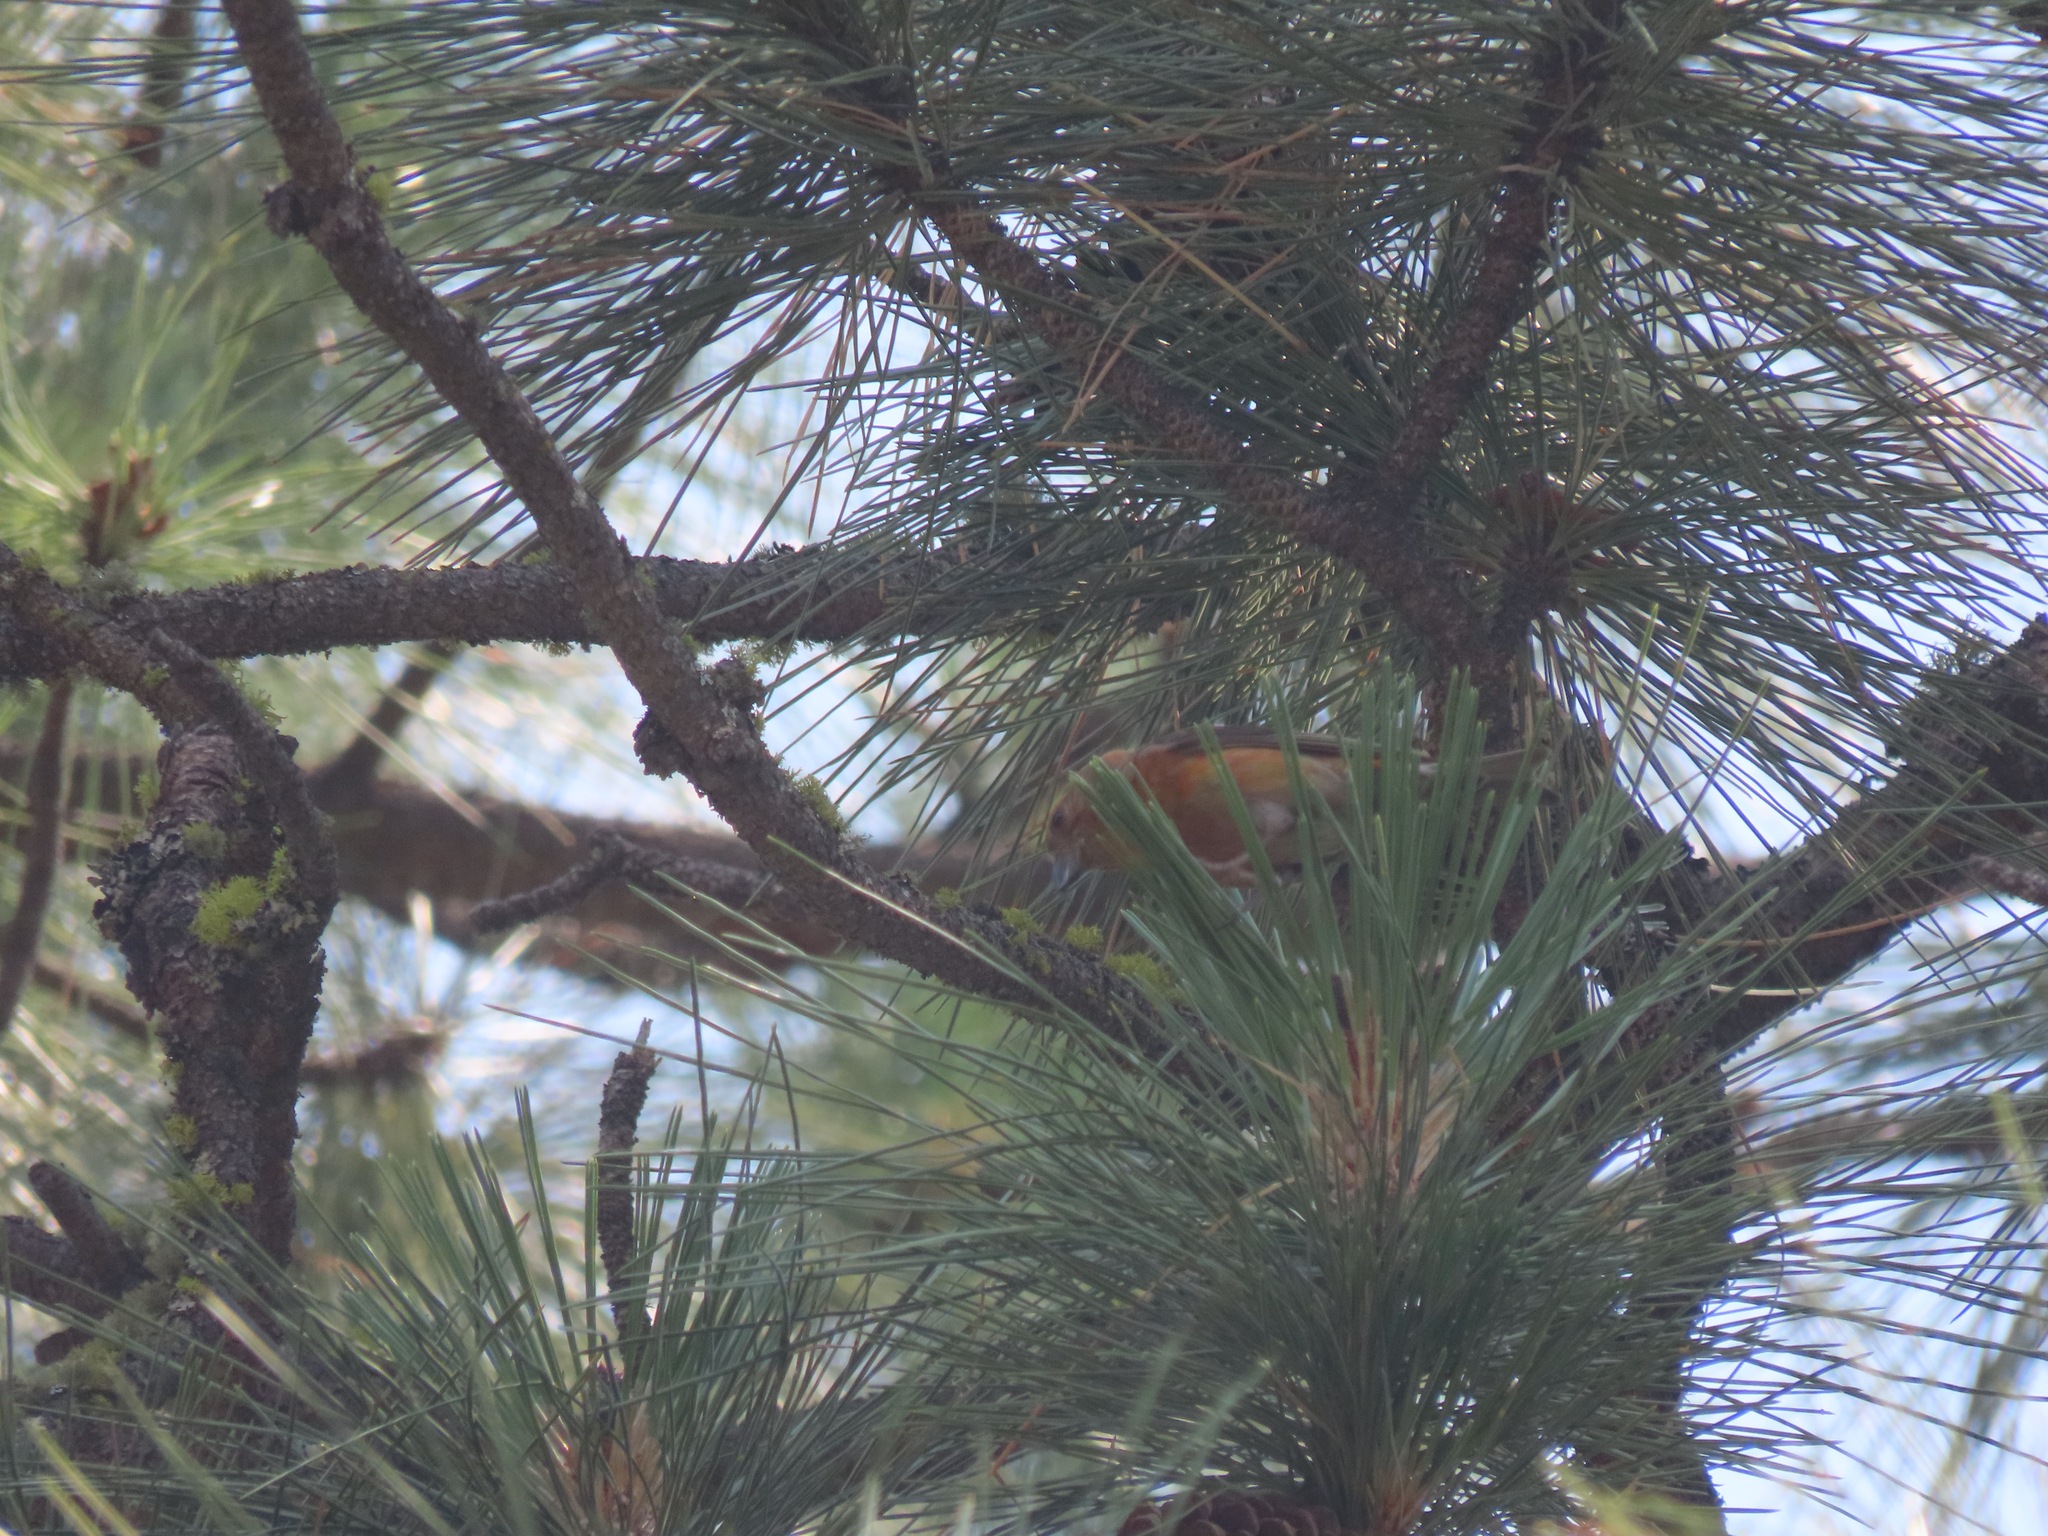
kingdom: Animalia
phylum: Chordata
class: Aves
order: Passeriformes
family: Fringillidae
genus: Loxia
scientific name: Loxia curvirostra
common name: Red crossbill
